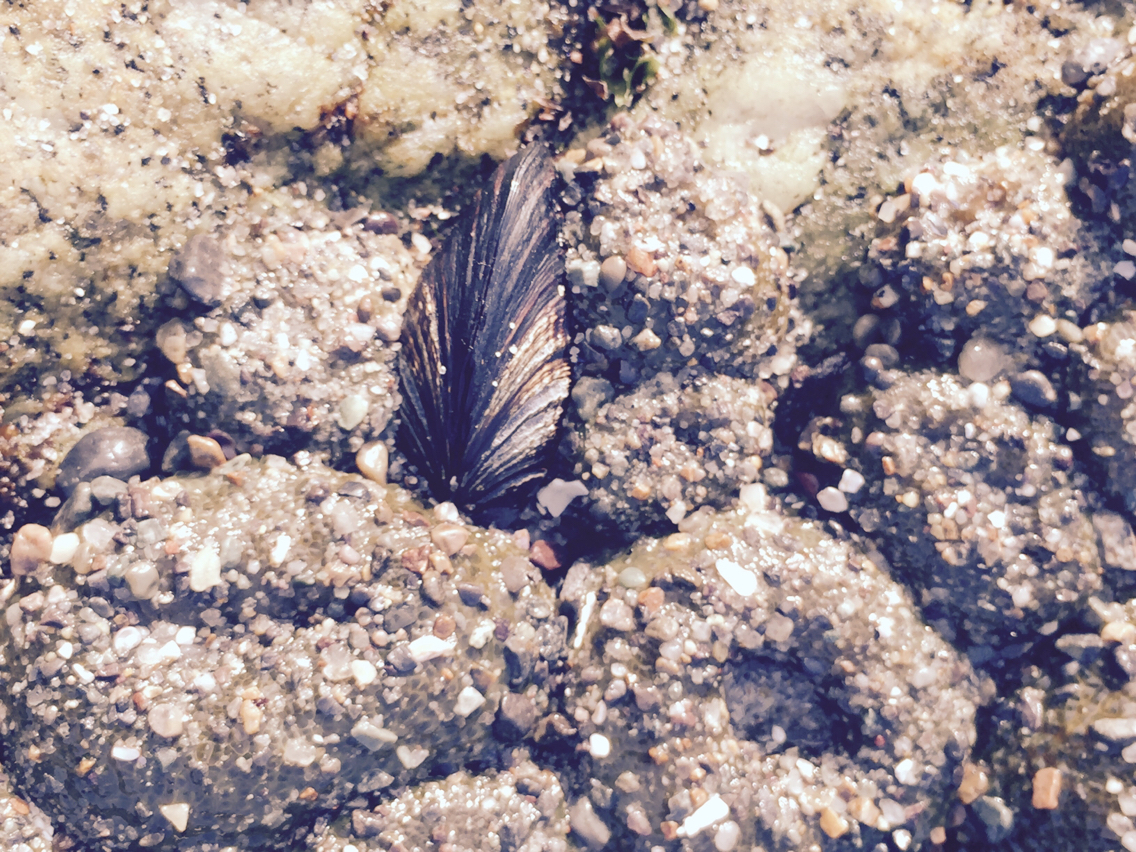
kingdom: Animalia
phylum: Mollusca
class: Bivalvia
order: Mytilida
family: Mytilidae
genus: Mytilus
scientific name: Mytilus californianus
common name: California mussel
